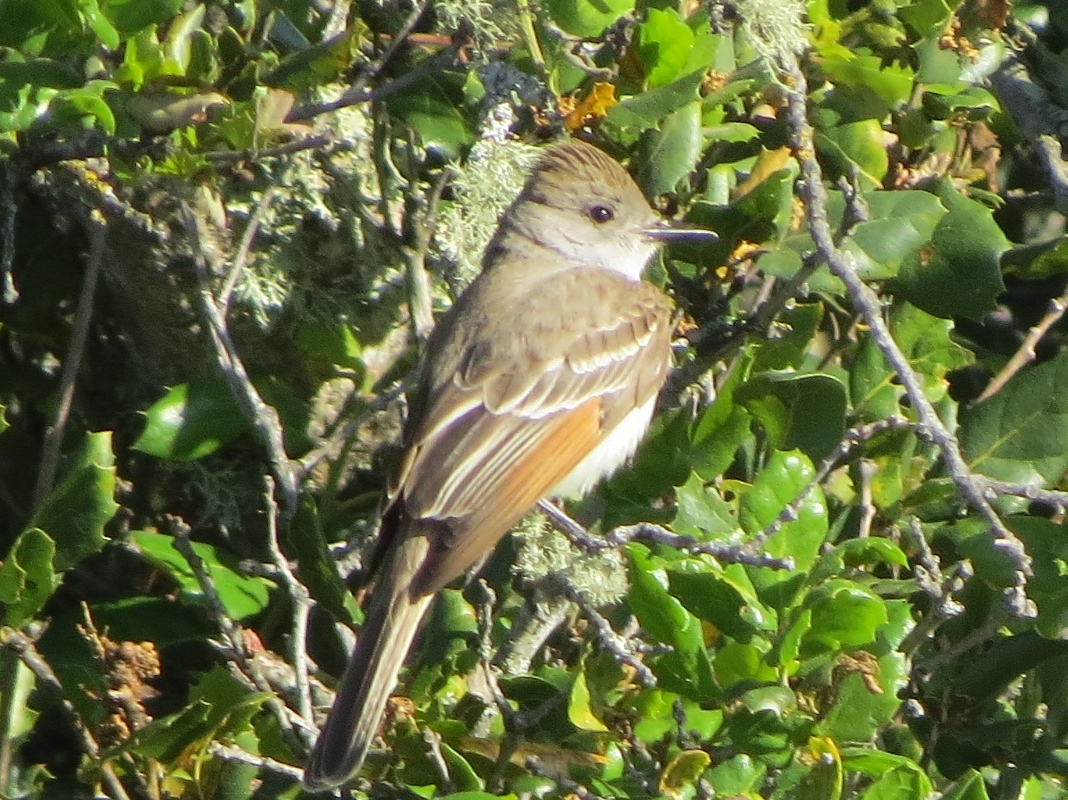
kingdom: Animalia
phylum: Chordata
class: Aves
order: Passeriformes
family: Tyrannidae
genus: Myiarchus
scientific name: Myiarchus cinerascens
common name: Ash-throated flycatcher
